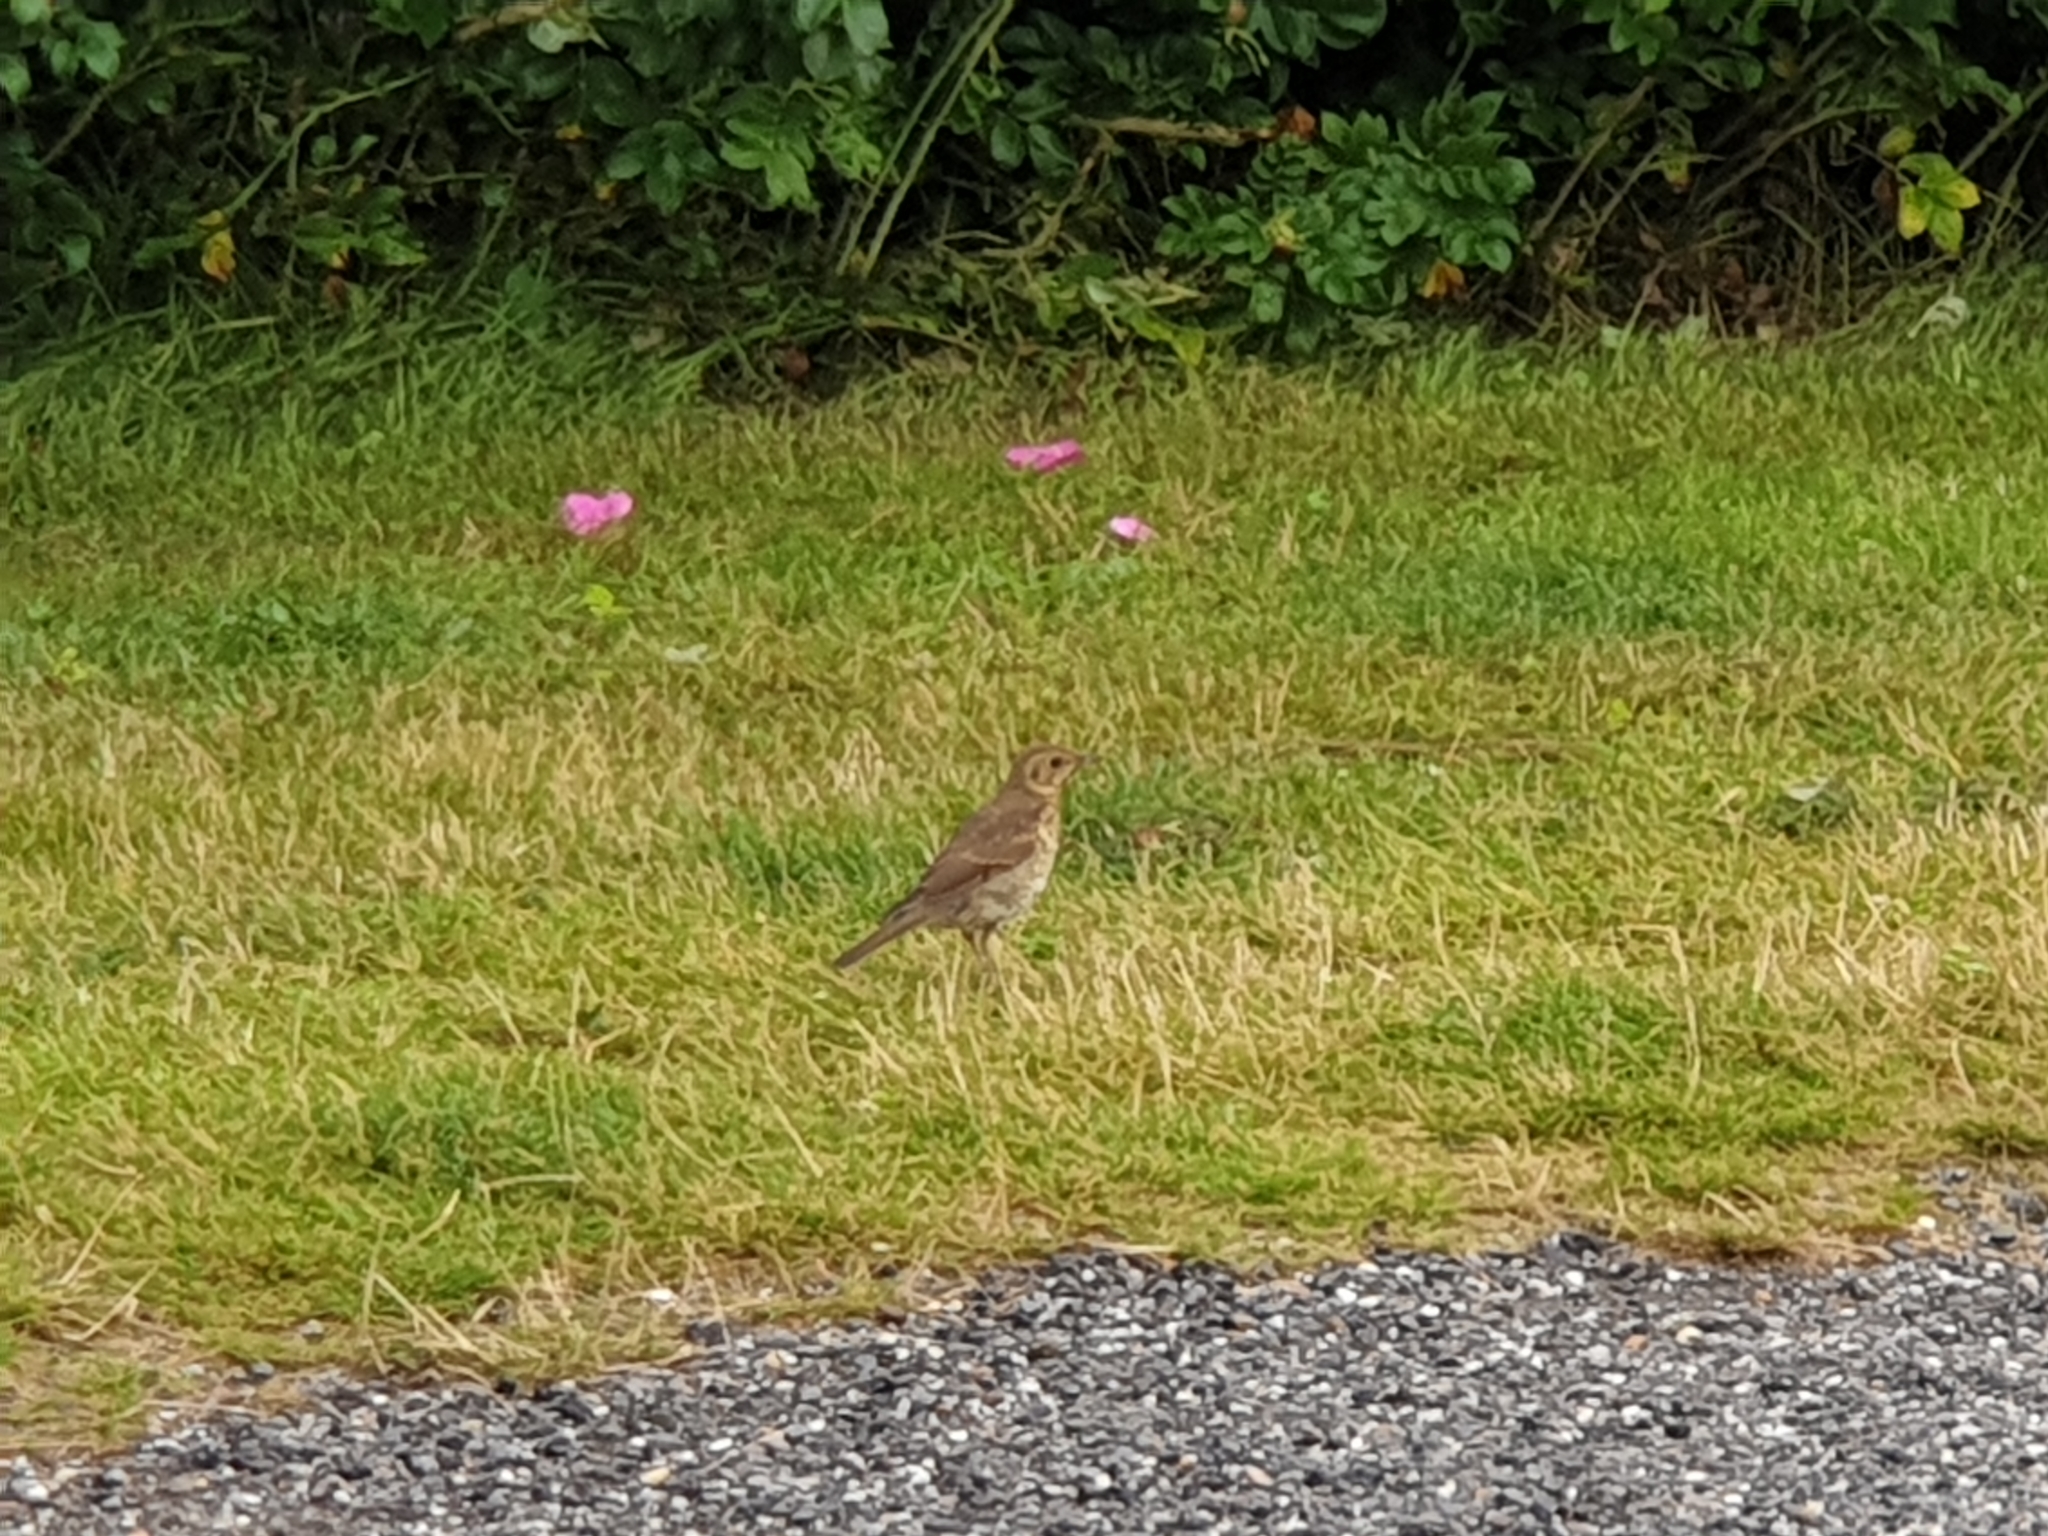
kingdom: Animalia
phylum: Chordata
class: Aves
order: Passeriformes
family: Turdidae
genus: Turdus
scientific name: Turdus philomelos
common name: Song thrush
